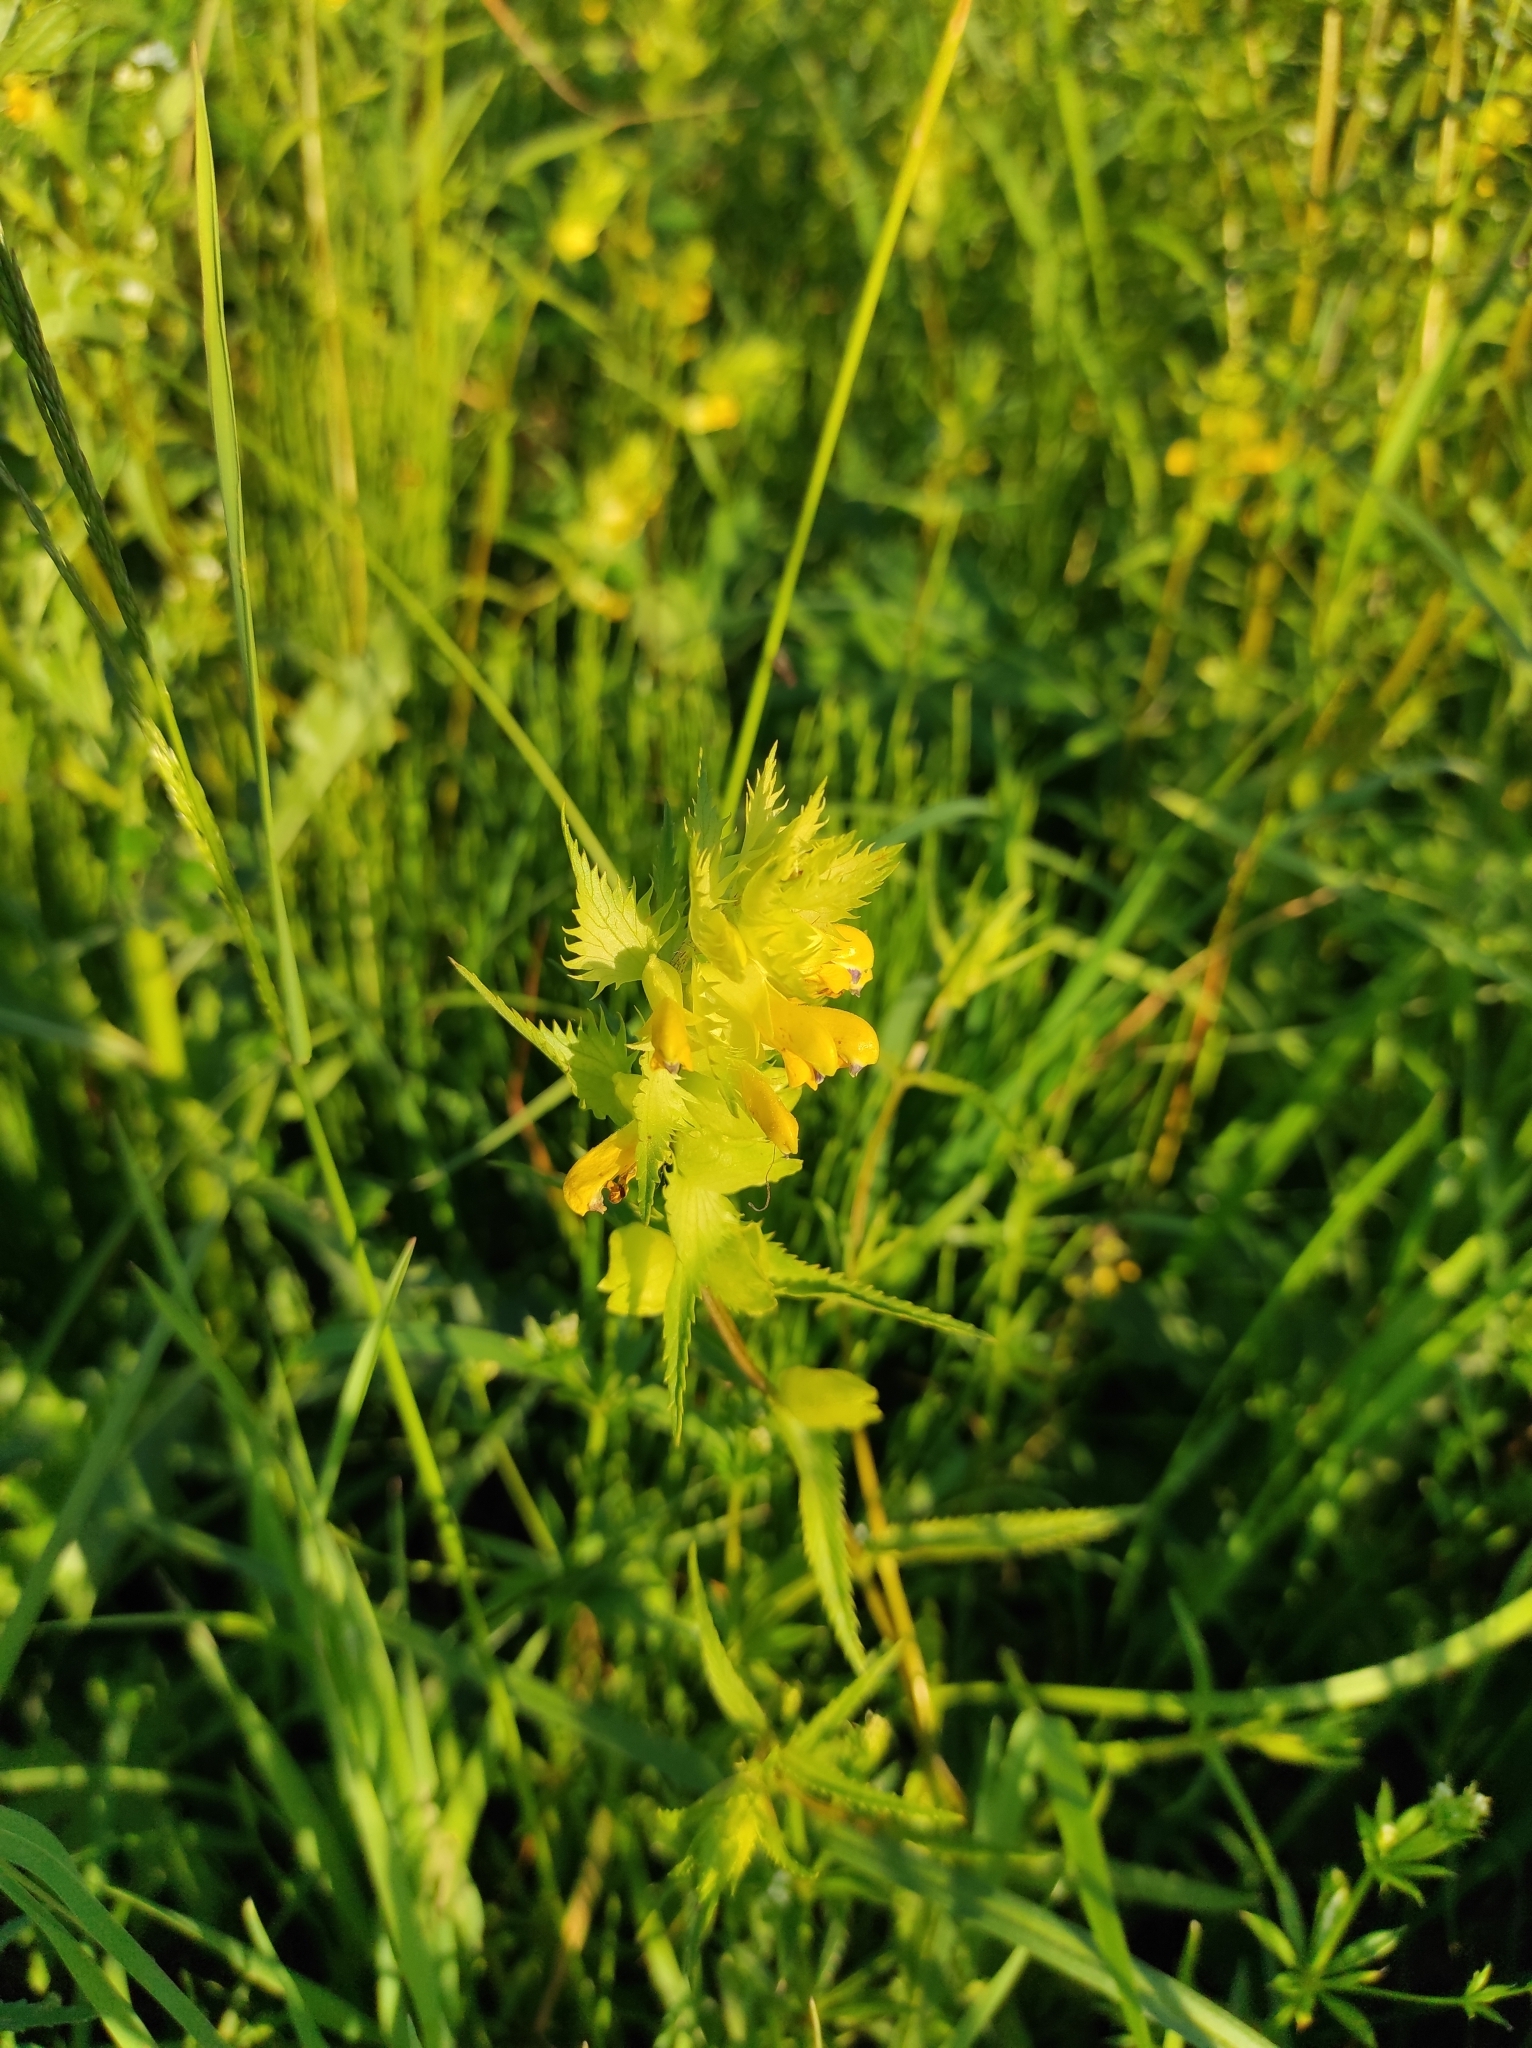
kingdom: Plantae
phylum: Tracheophyta
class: Magnoliopsida
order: Lamiales
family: Orobanchaceae
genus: Rhinanthus
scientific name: Rhinanthus serotinus
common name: Late-flowering yellow rattle
